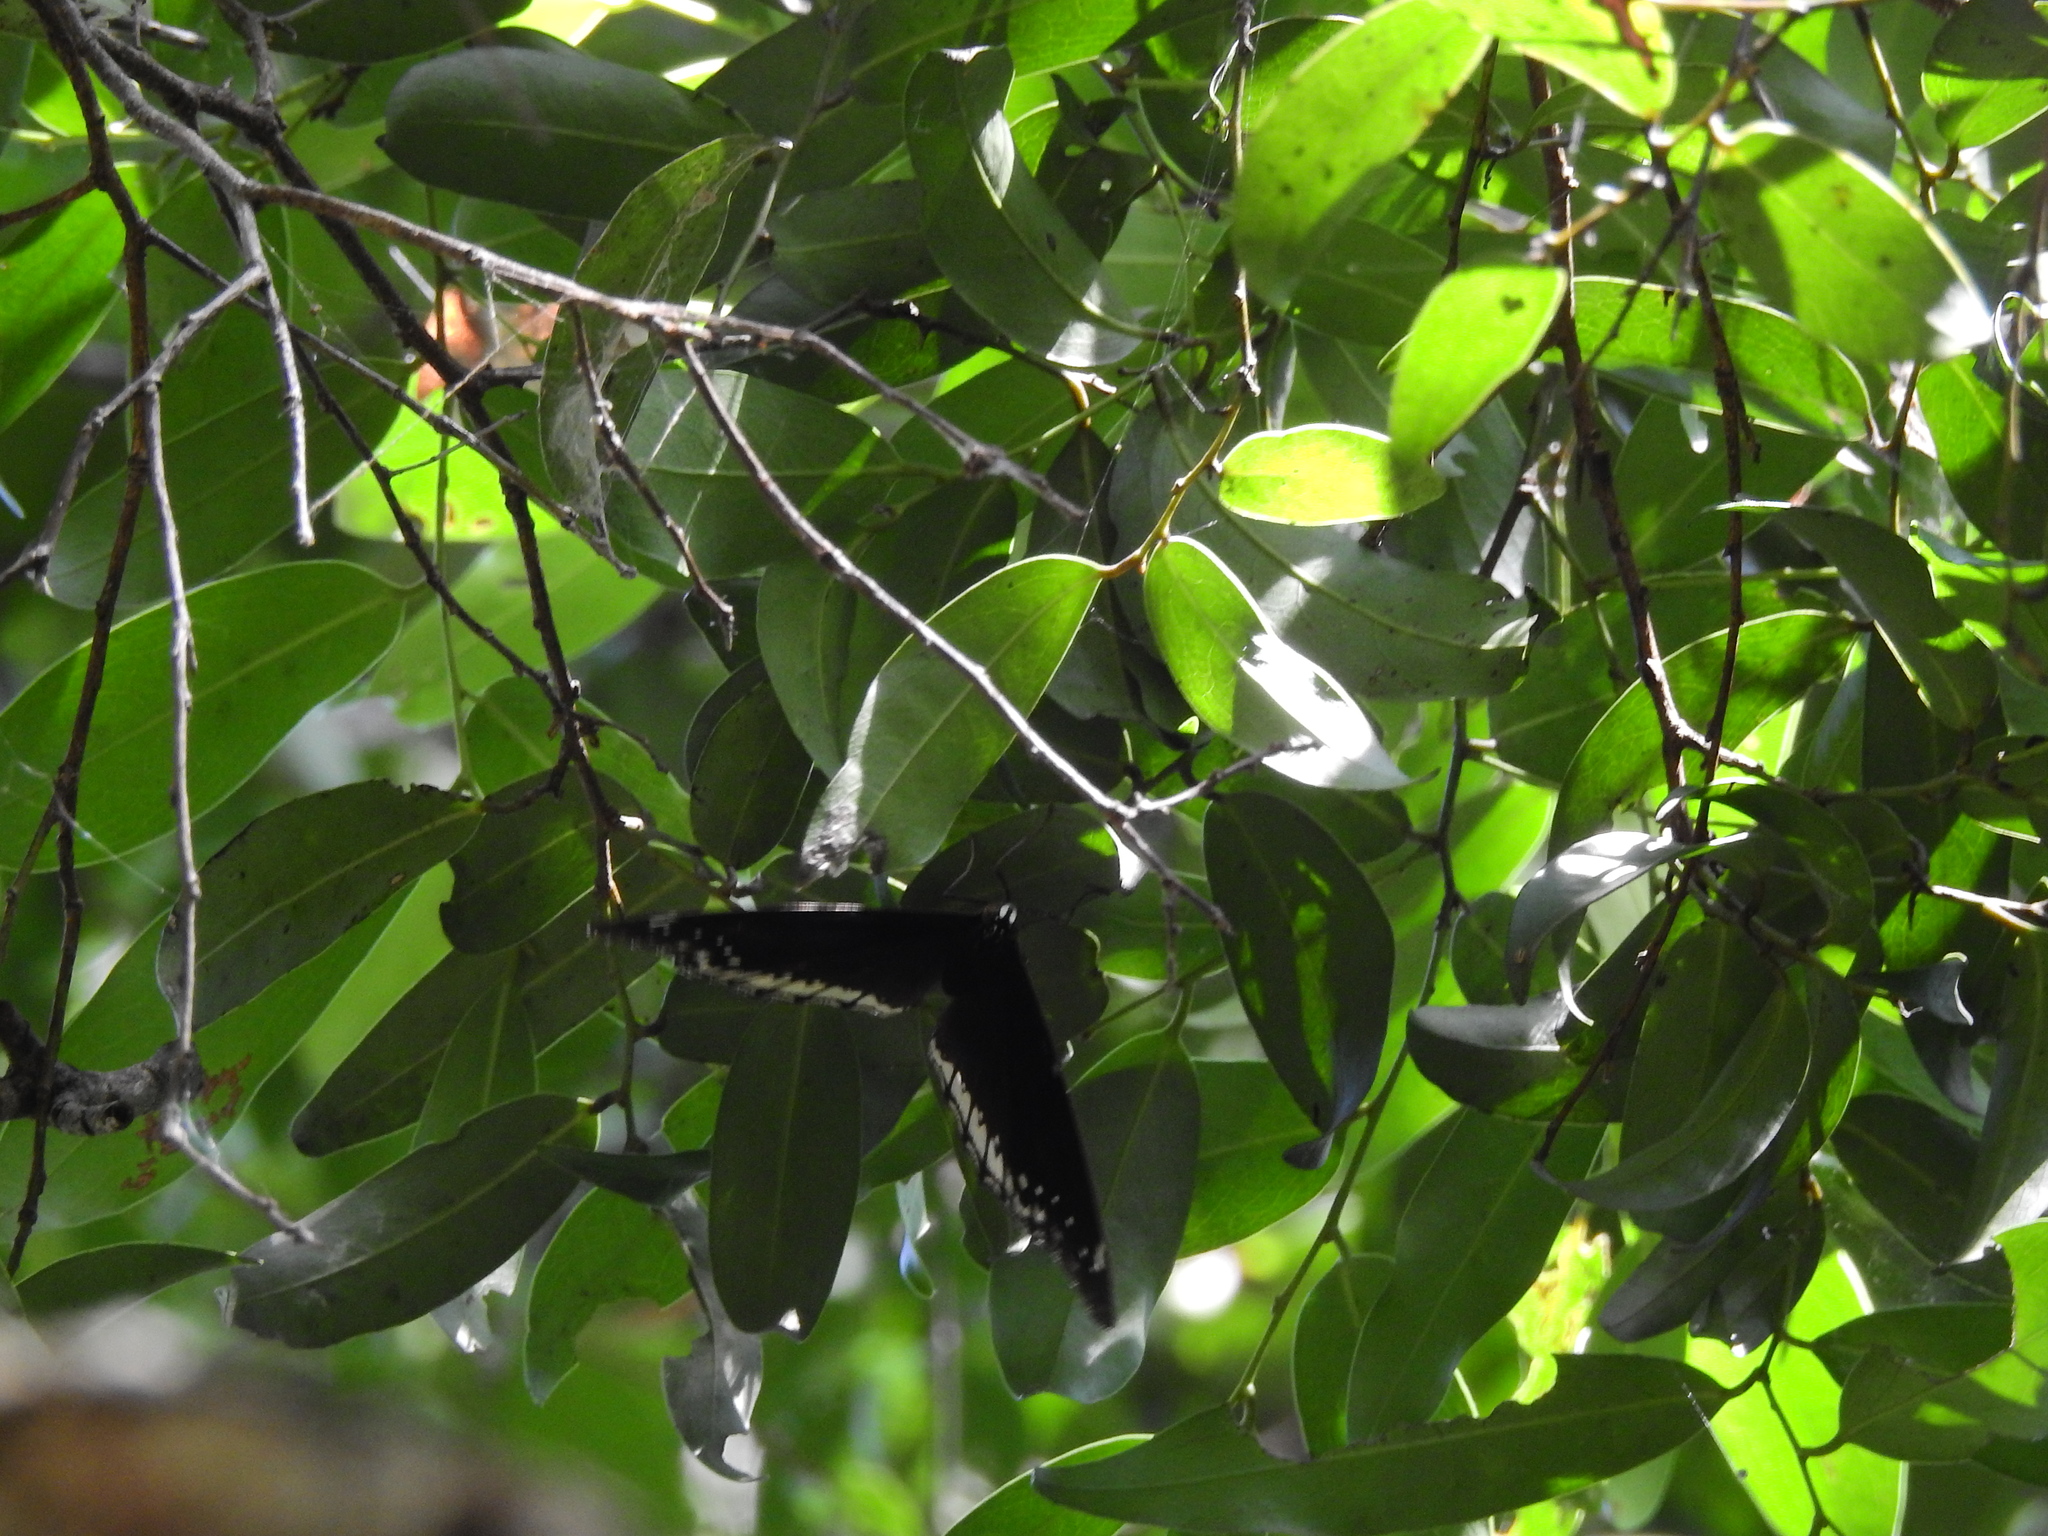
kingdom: Animalia
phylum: Arthropoda
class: Insecta
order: Lepidoptera
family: Nymphalidae
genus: Hypolimnas
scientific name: Hypolimnas bolina
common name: Great eggfly
